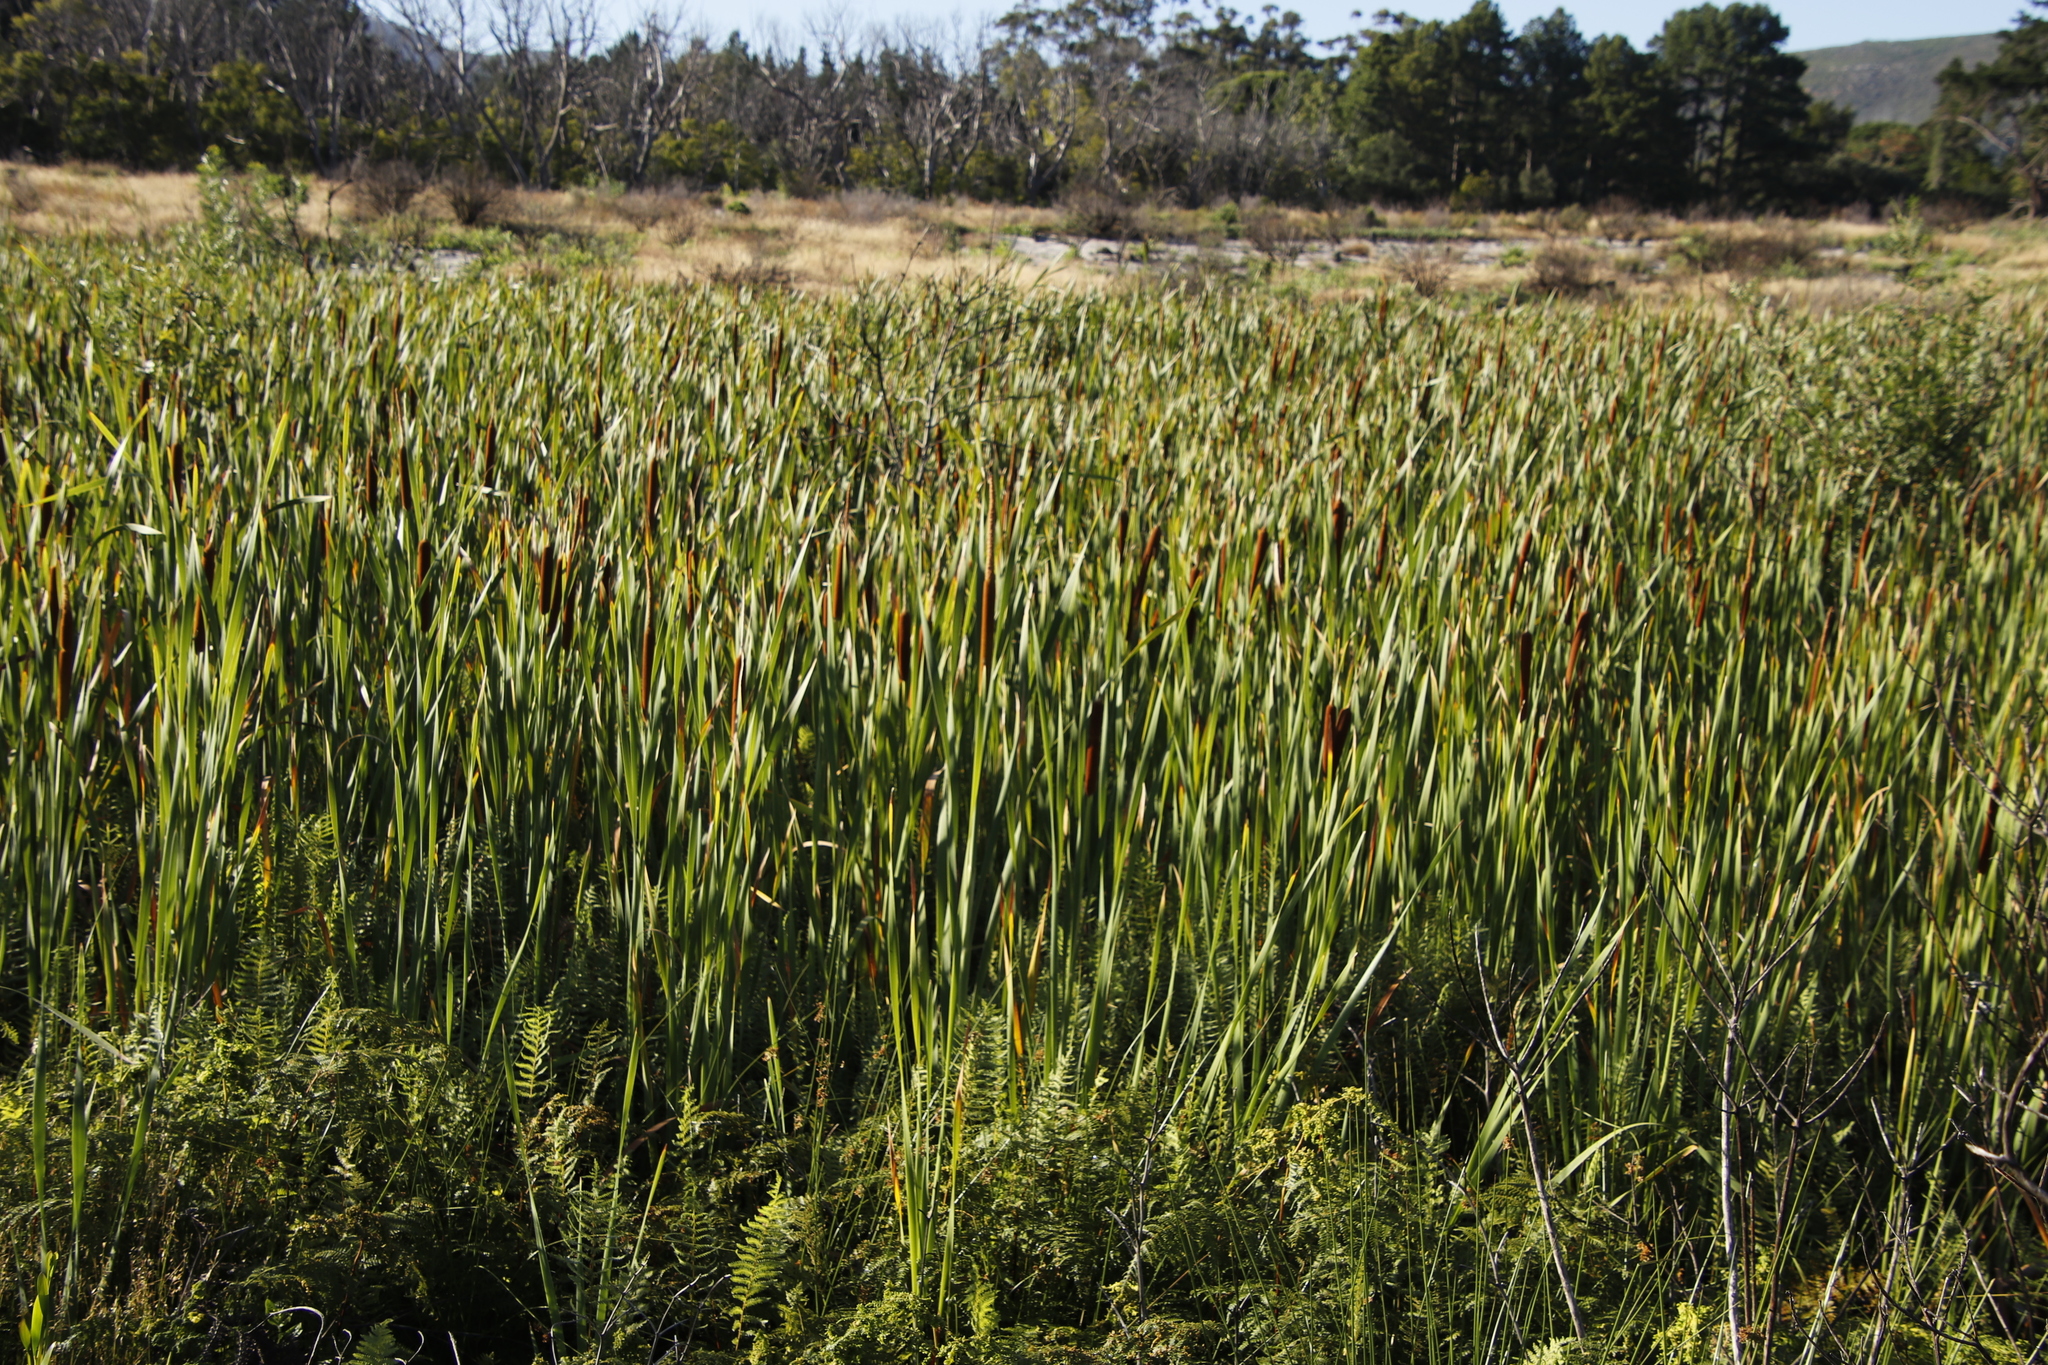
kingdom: Plantae
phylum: Tracheophyta
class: Liliopsida
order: Poales
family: Typhaceae
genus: Typha
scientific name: Typha capensis
